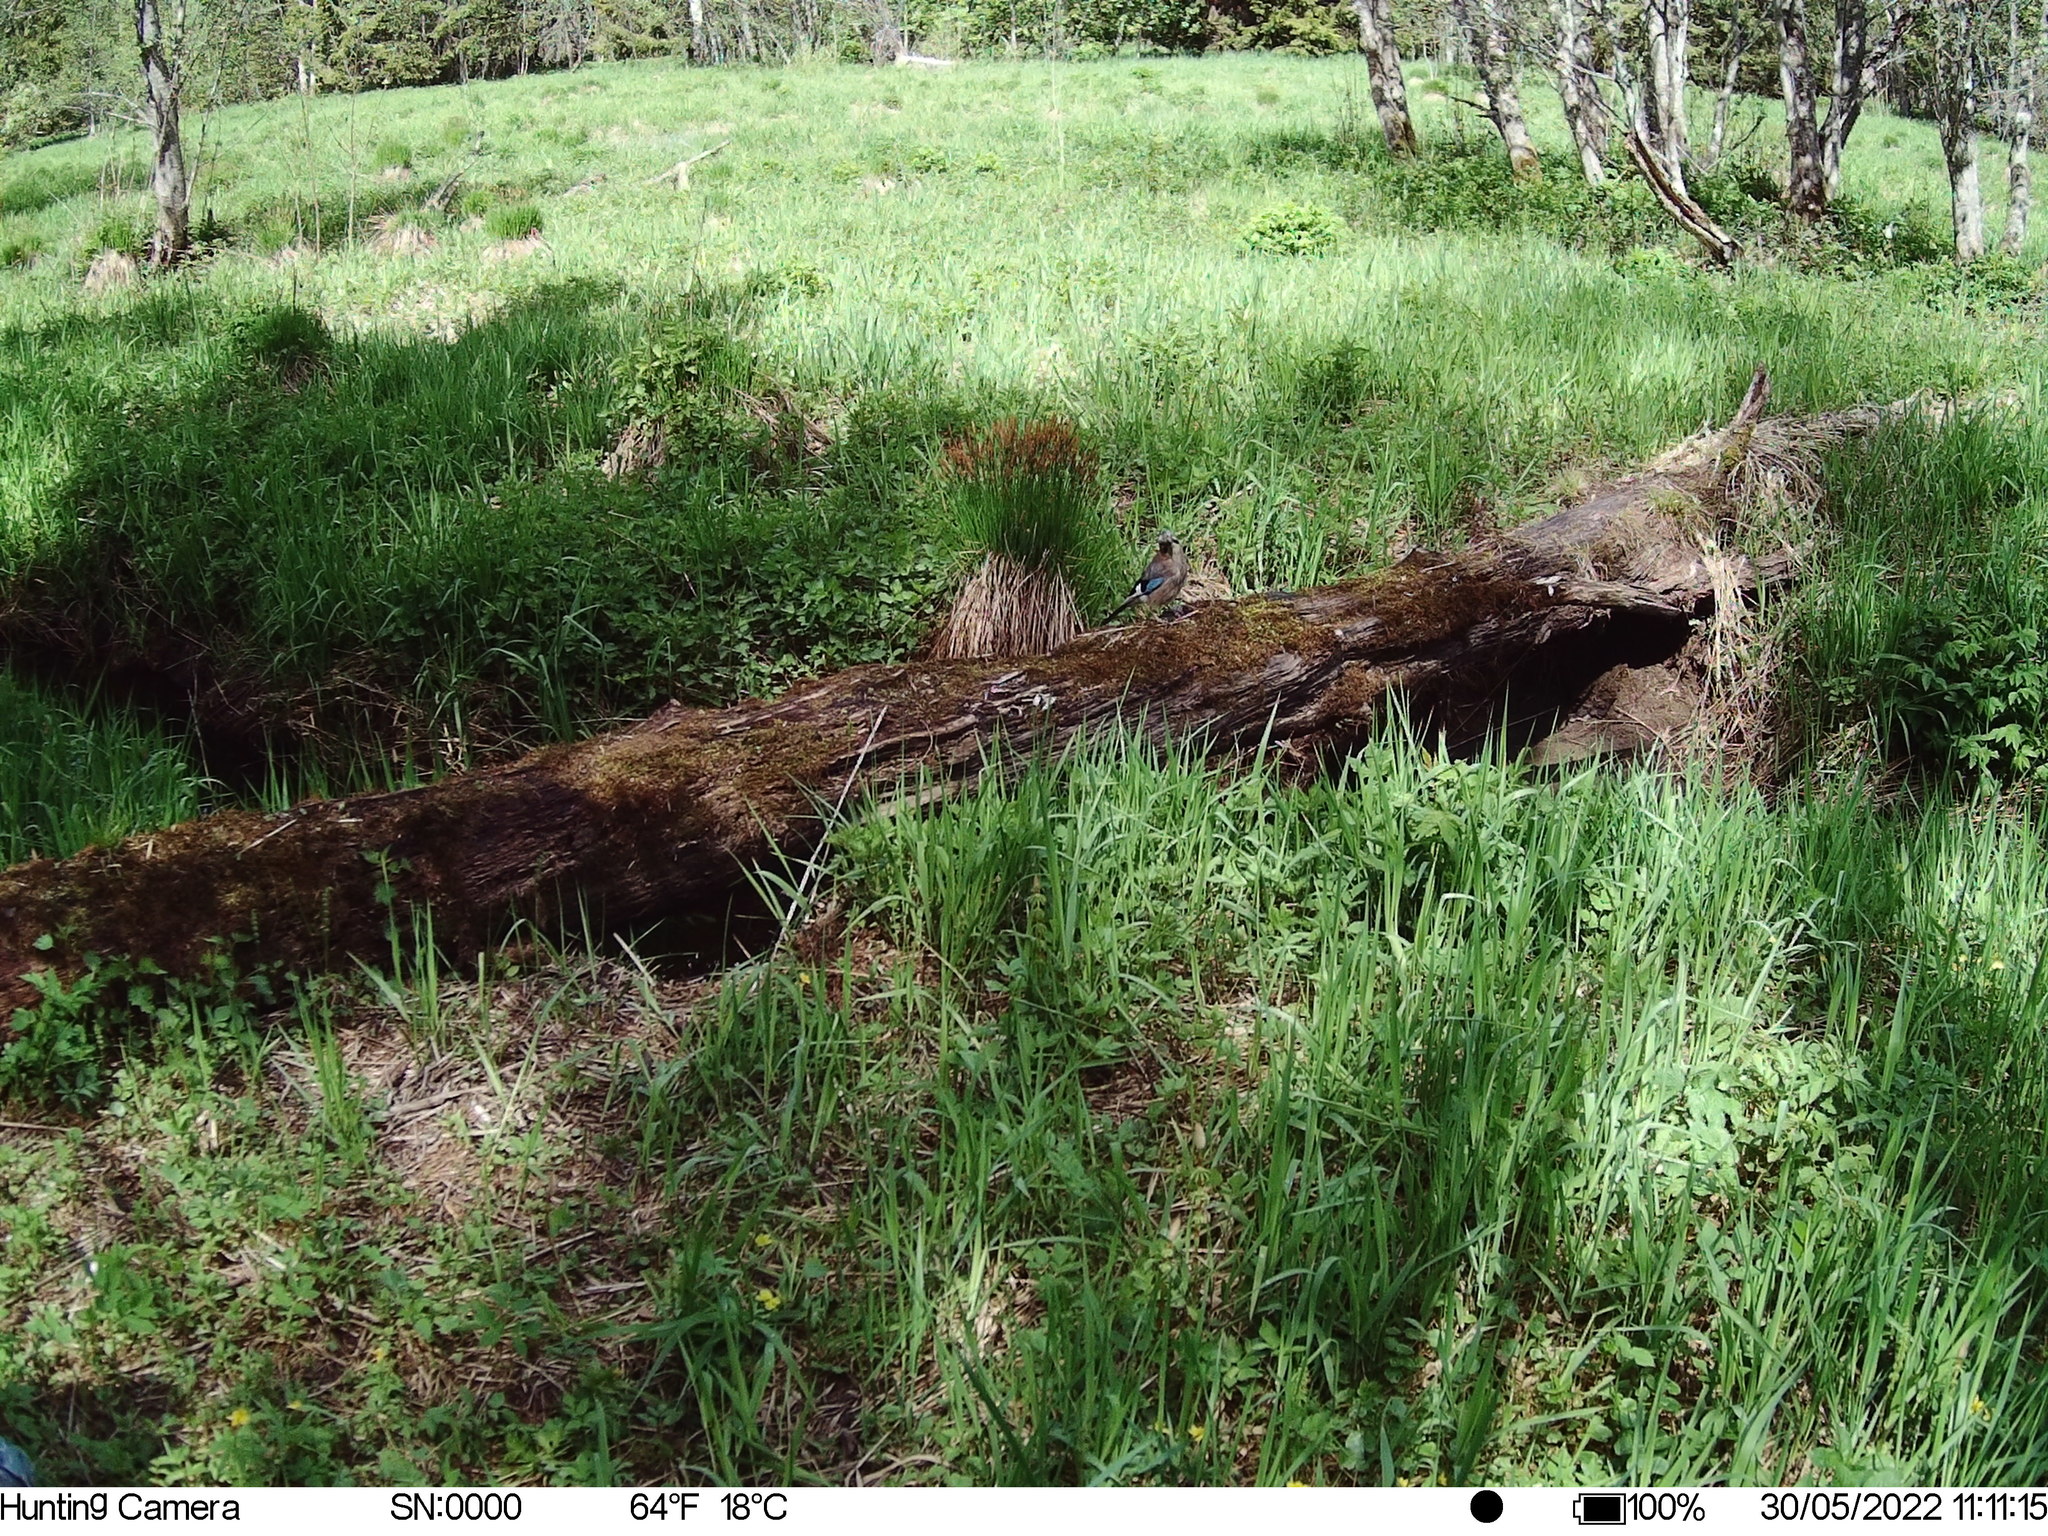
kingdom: Animalia
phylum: Chordata
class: Aves
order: Passeriformes
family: Corvidae
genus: Garrulus
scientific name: Garrulus glandarius
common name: Eurasian jay
